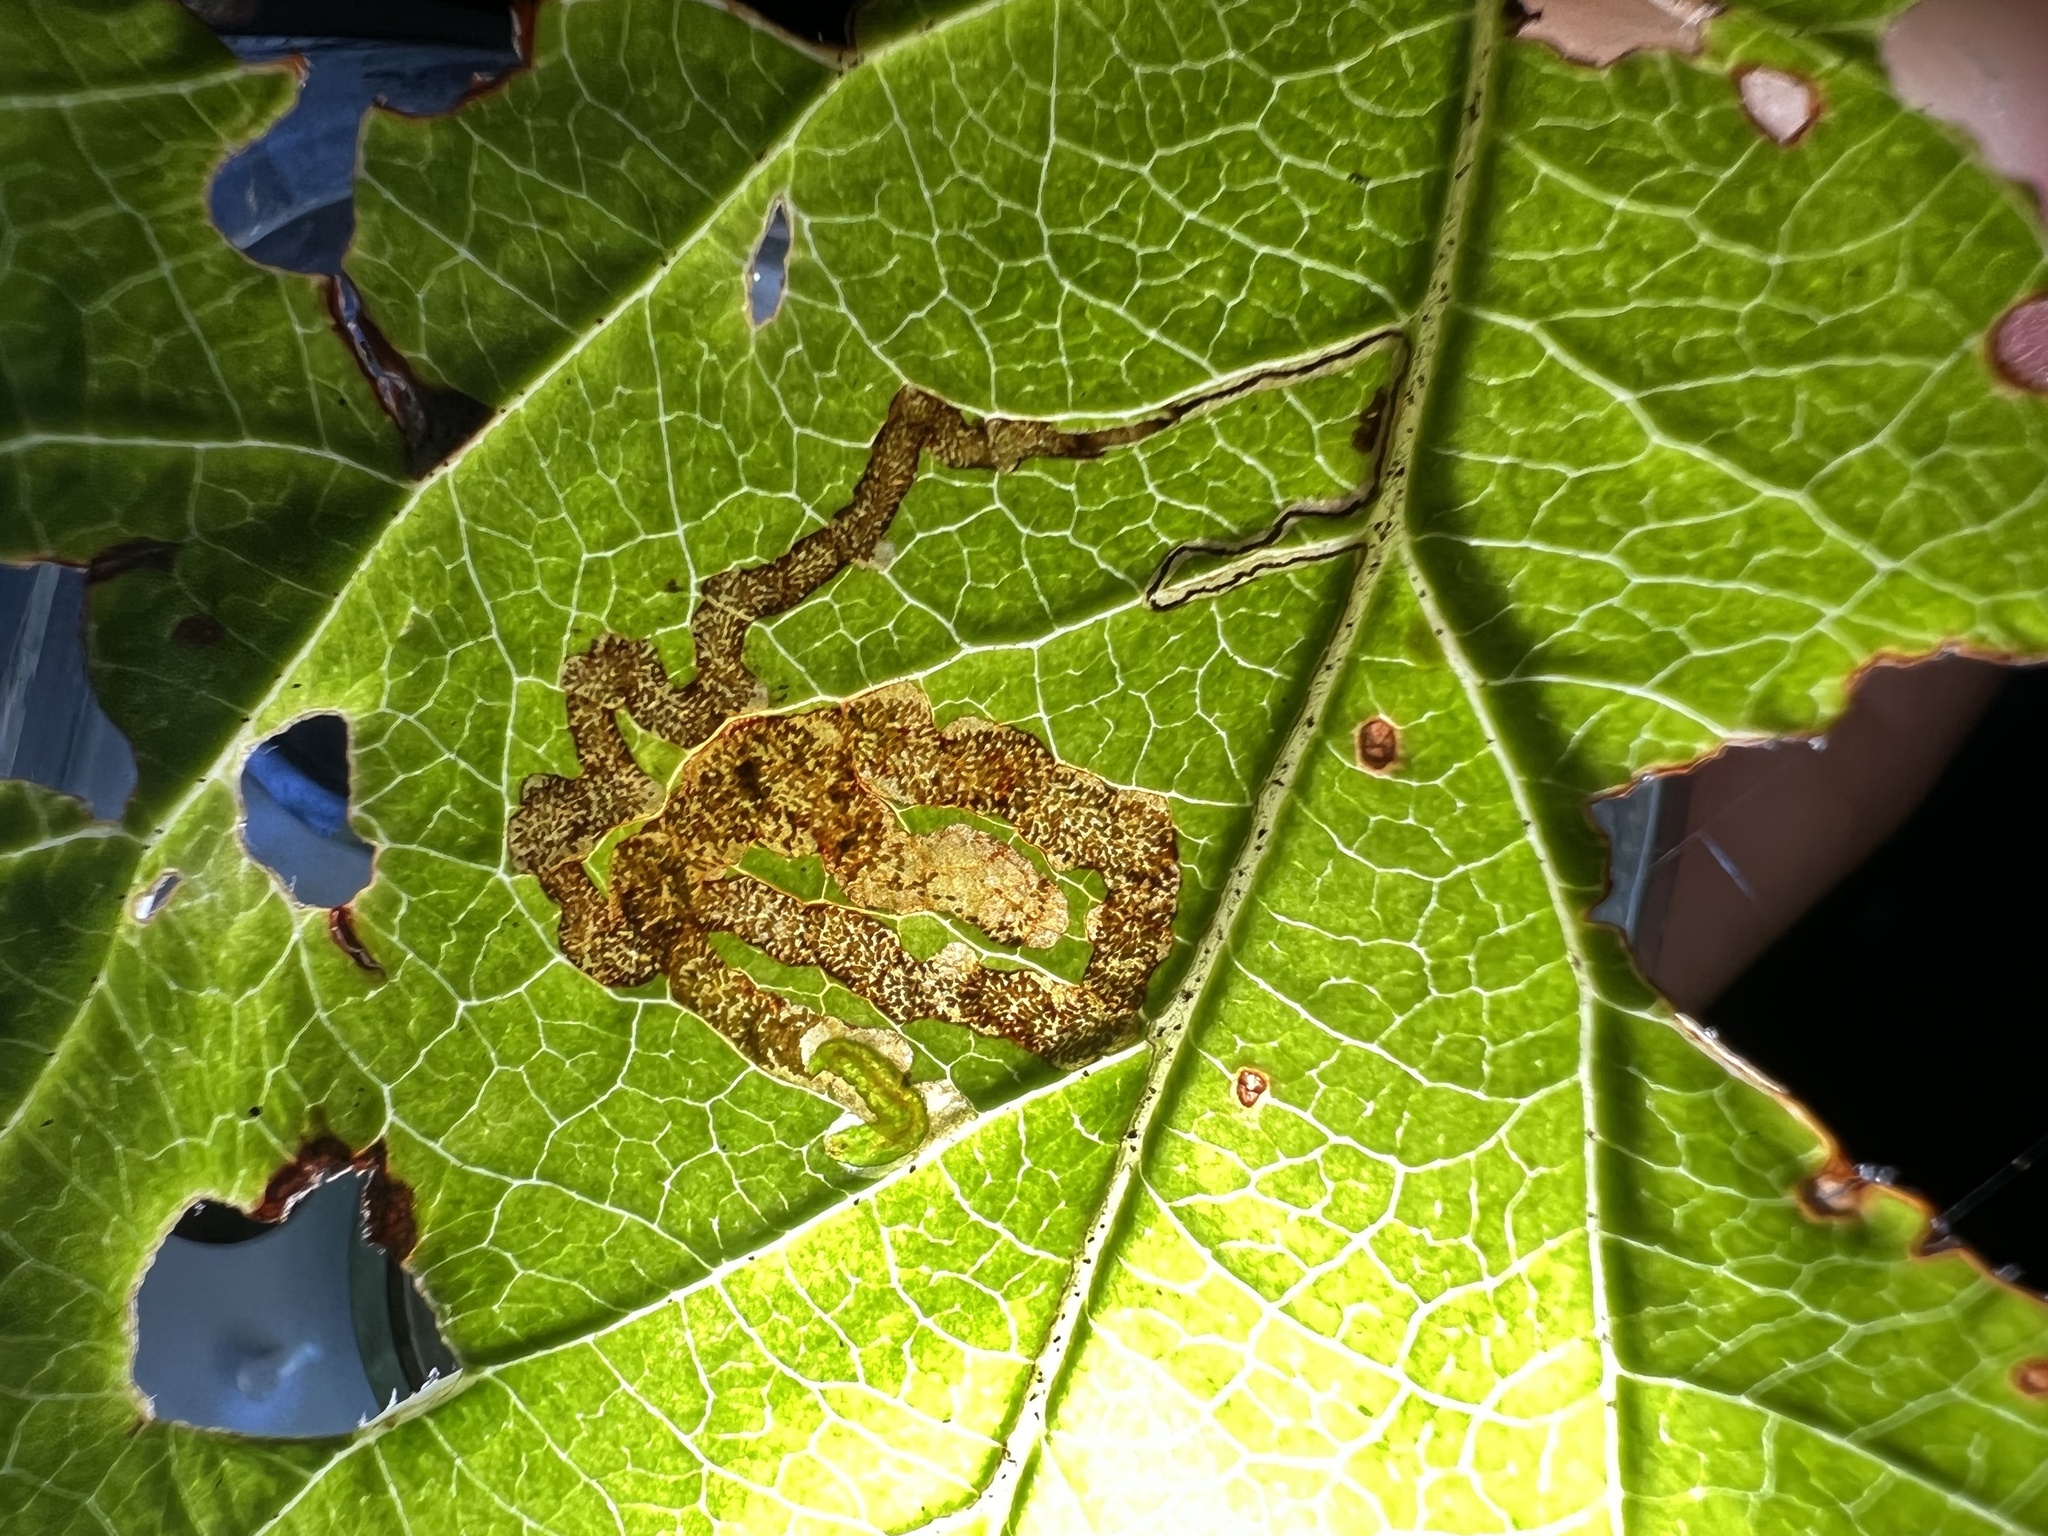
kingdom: Animalia
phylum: Arthropoda
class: Insecta
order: Lepidoptera
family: Nepticulidae
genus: Stigmella
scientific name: Stigmella oxyacanthella
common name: Common fruit-tree pigmy
